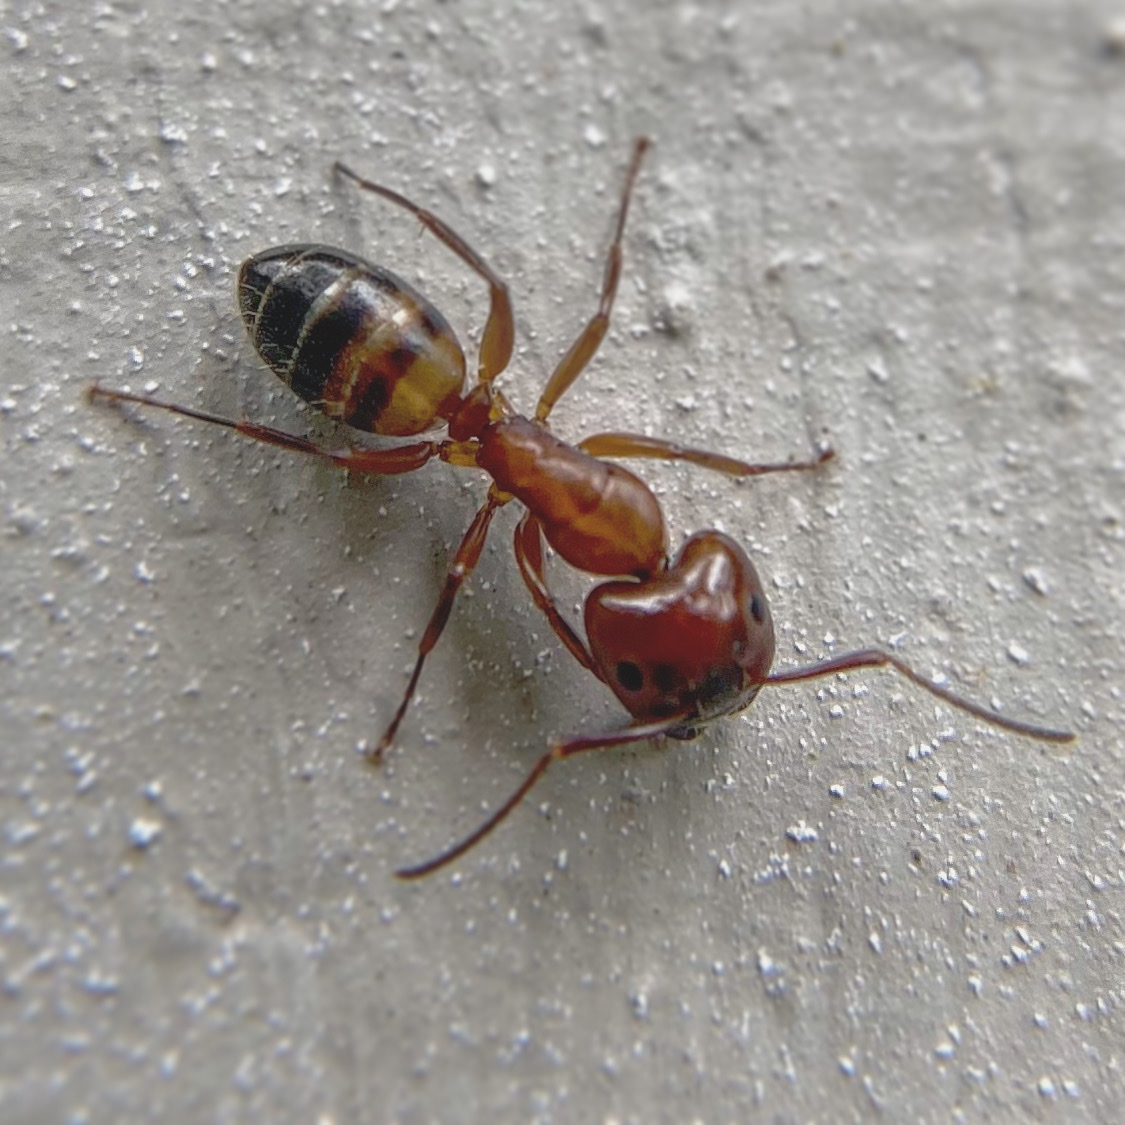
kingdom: Animalia
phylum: Arthropoda
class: Insecta
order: Hymenoptera
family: Formicidae
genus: Camponotus
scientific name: Camponotus snellingi
